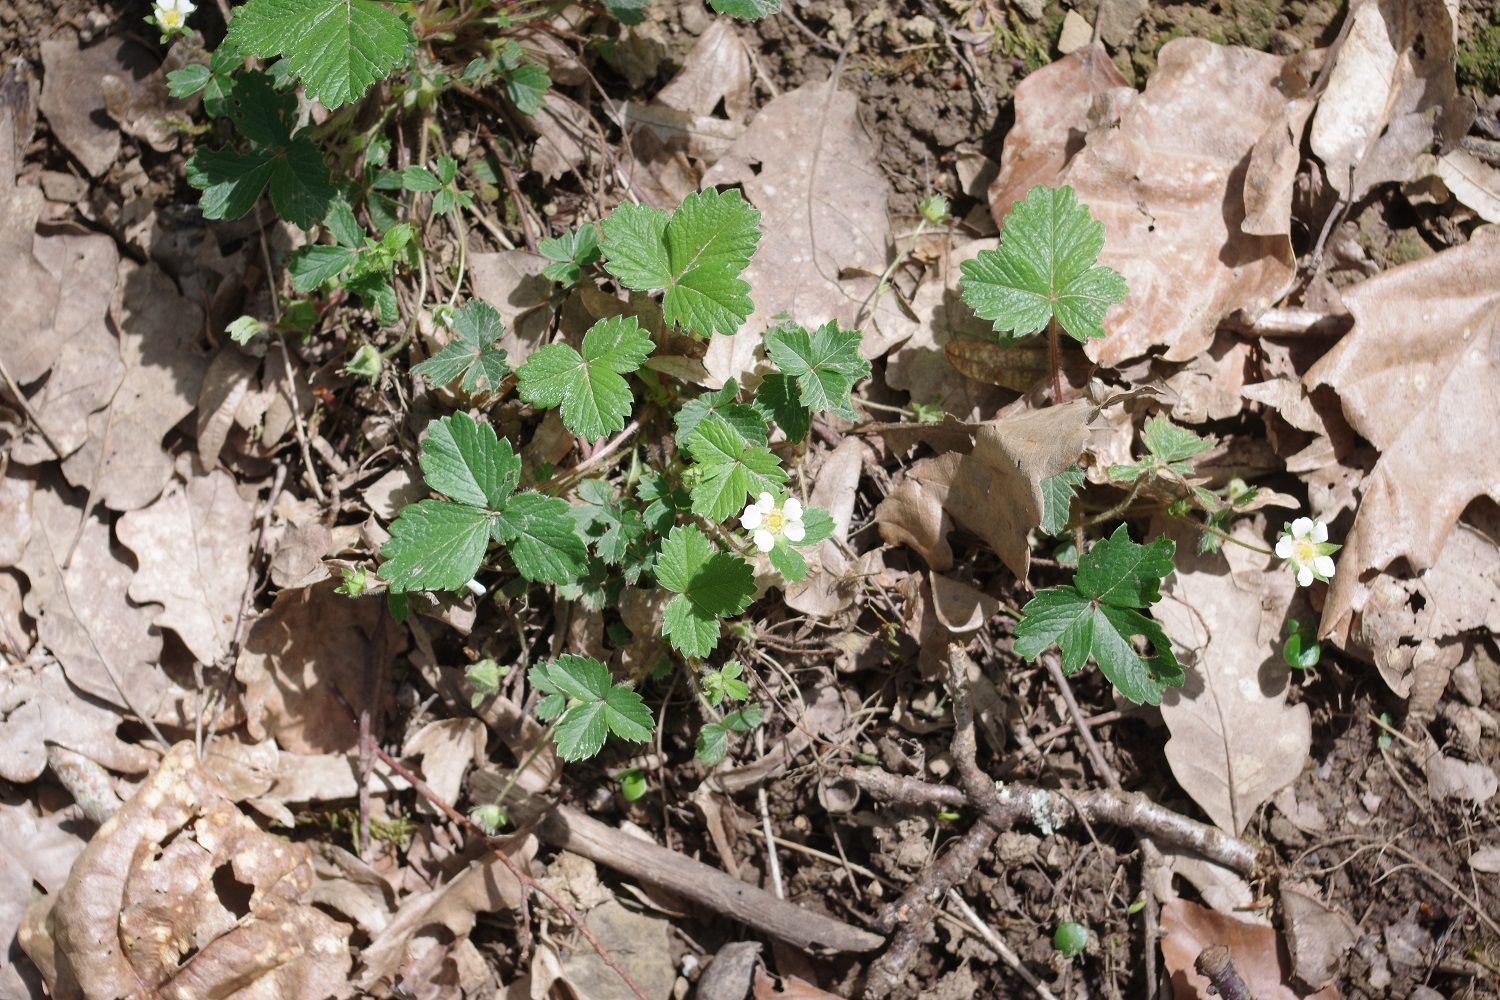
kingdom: Plantae
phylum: Tracheophyta
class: Magnoliopsida
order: Rosales
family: Rosaceae
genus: Potentilla
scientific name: Potentilla sterilis
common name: Barren strawberry
